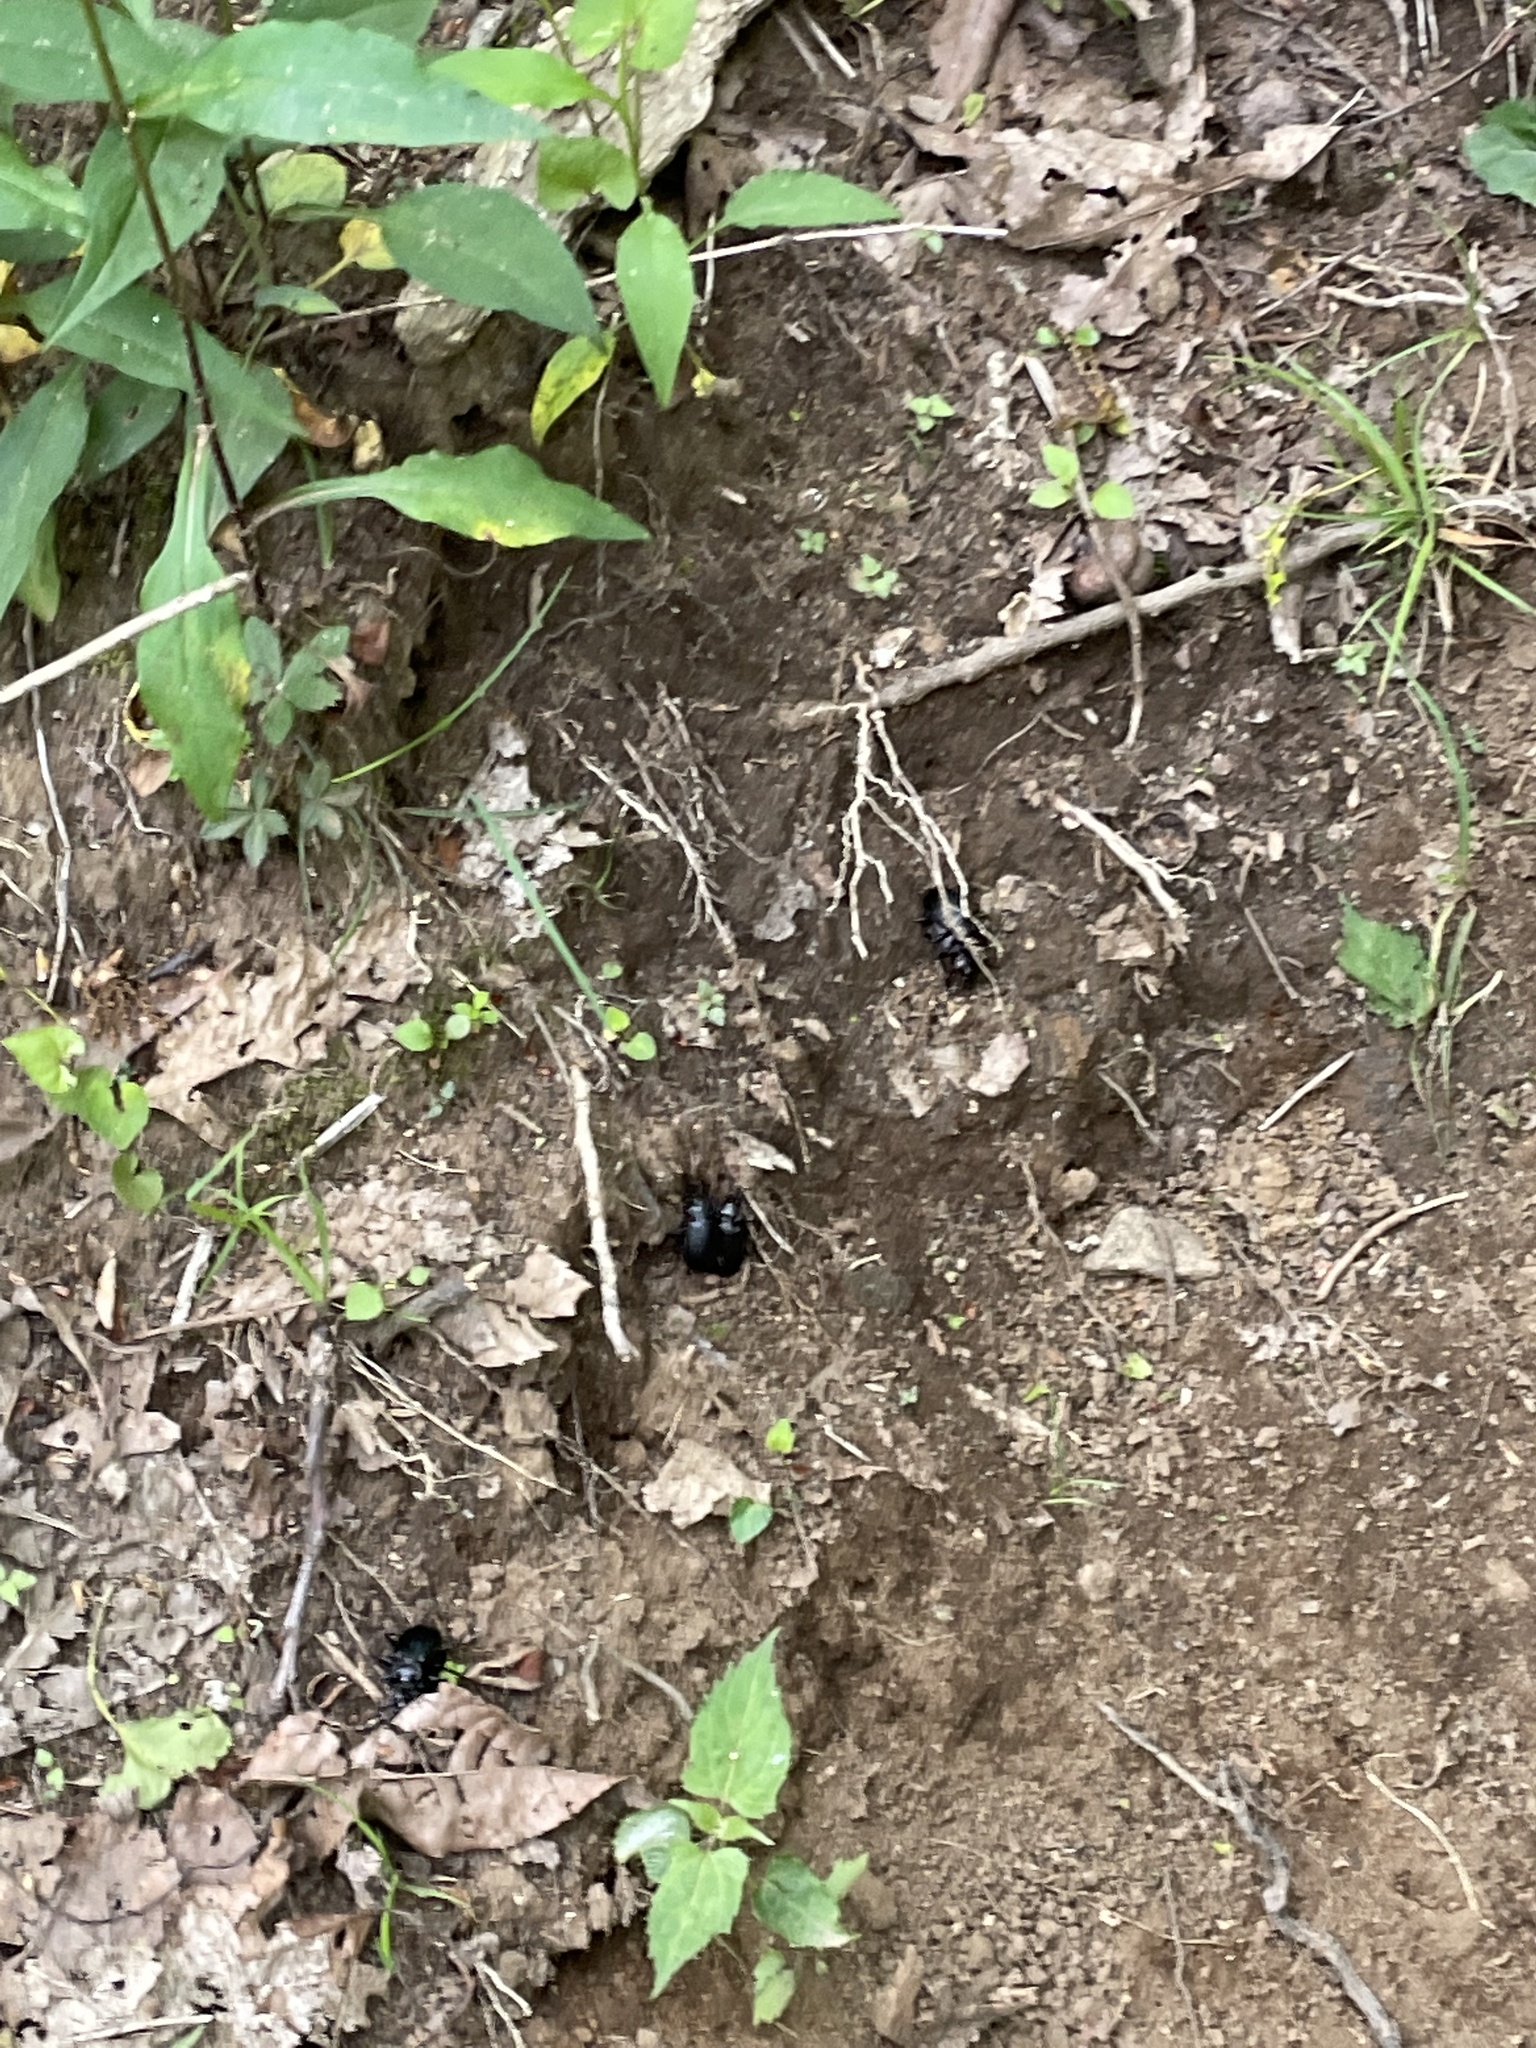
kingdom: Animalia
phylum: Arthropoda
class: Insecta
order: Coleoptera
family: Carabidae
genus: Calosoma
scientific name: Calosoma frigidum
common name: Cold-country caterpillar hunter
